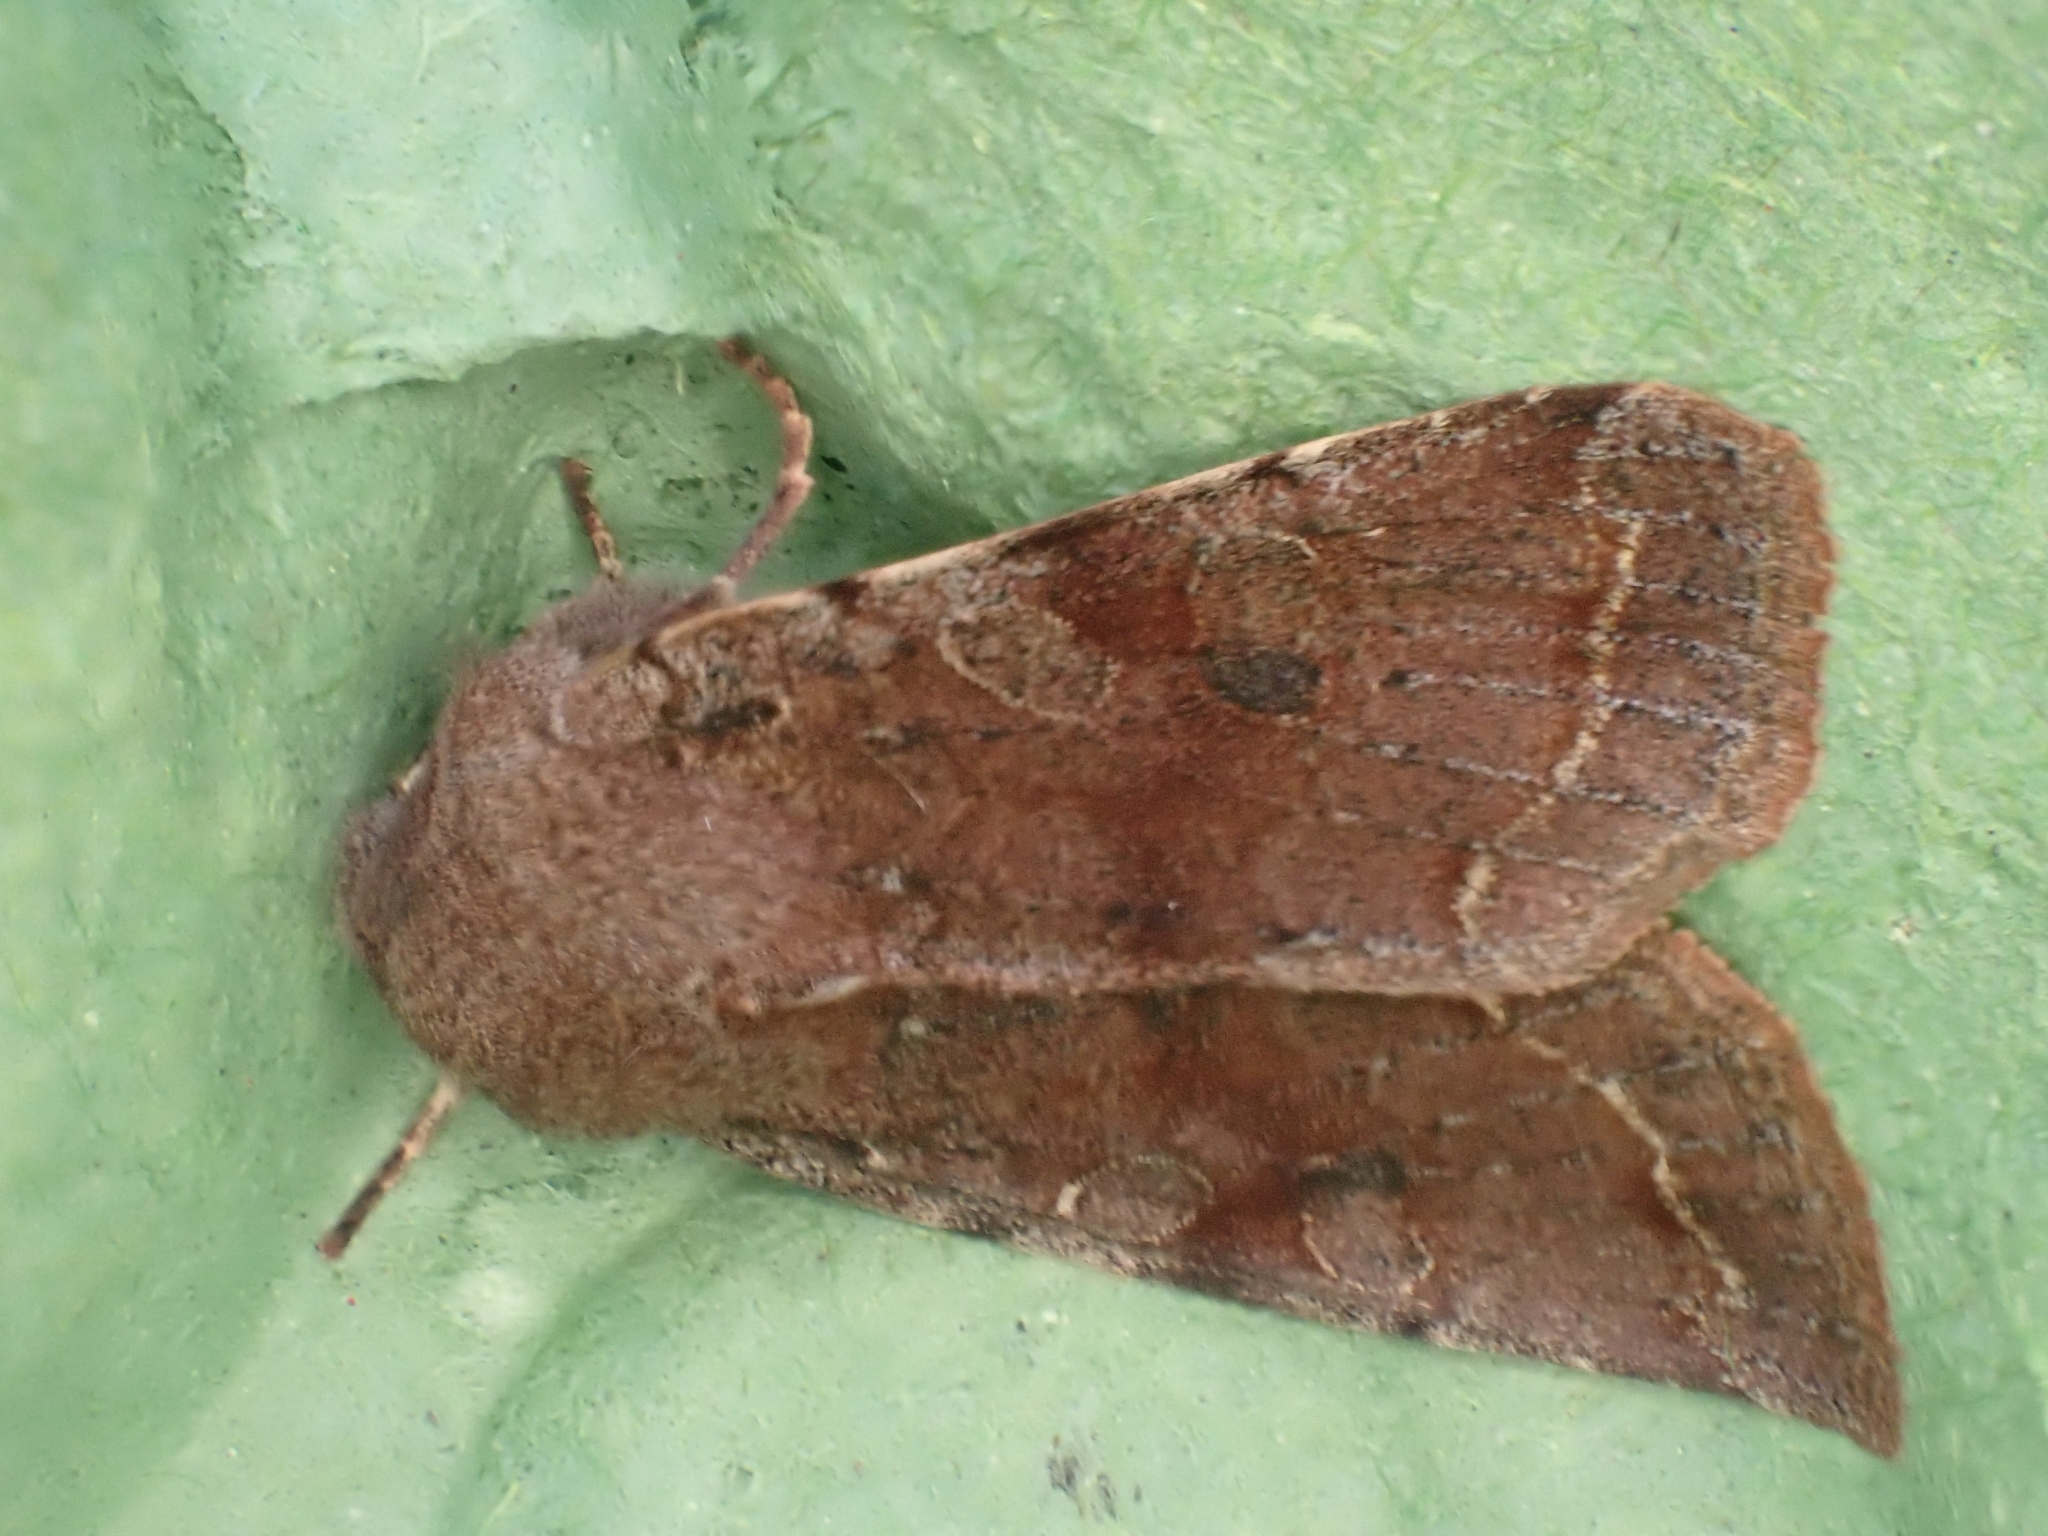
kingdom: Animalia
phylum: Arthropoda
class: Insecta
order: Lepidoptera
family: Noctuidae
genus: Orthosia
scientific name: Orthosia incerta
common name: Clouded drab
